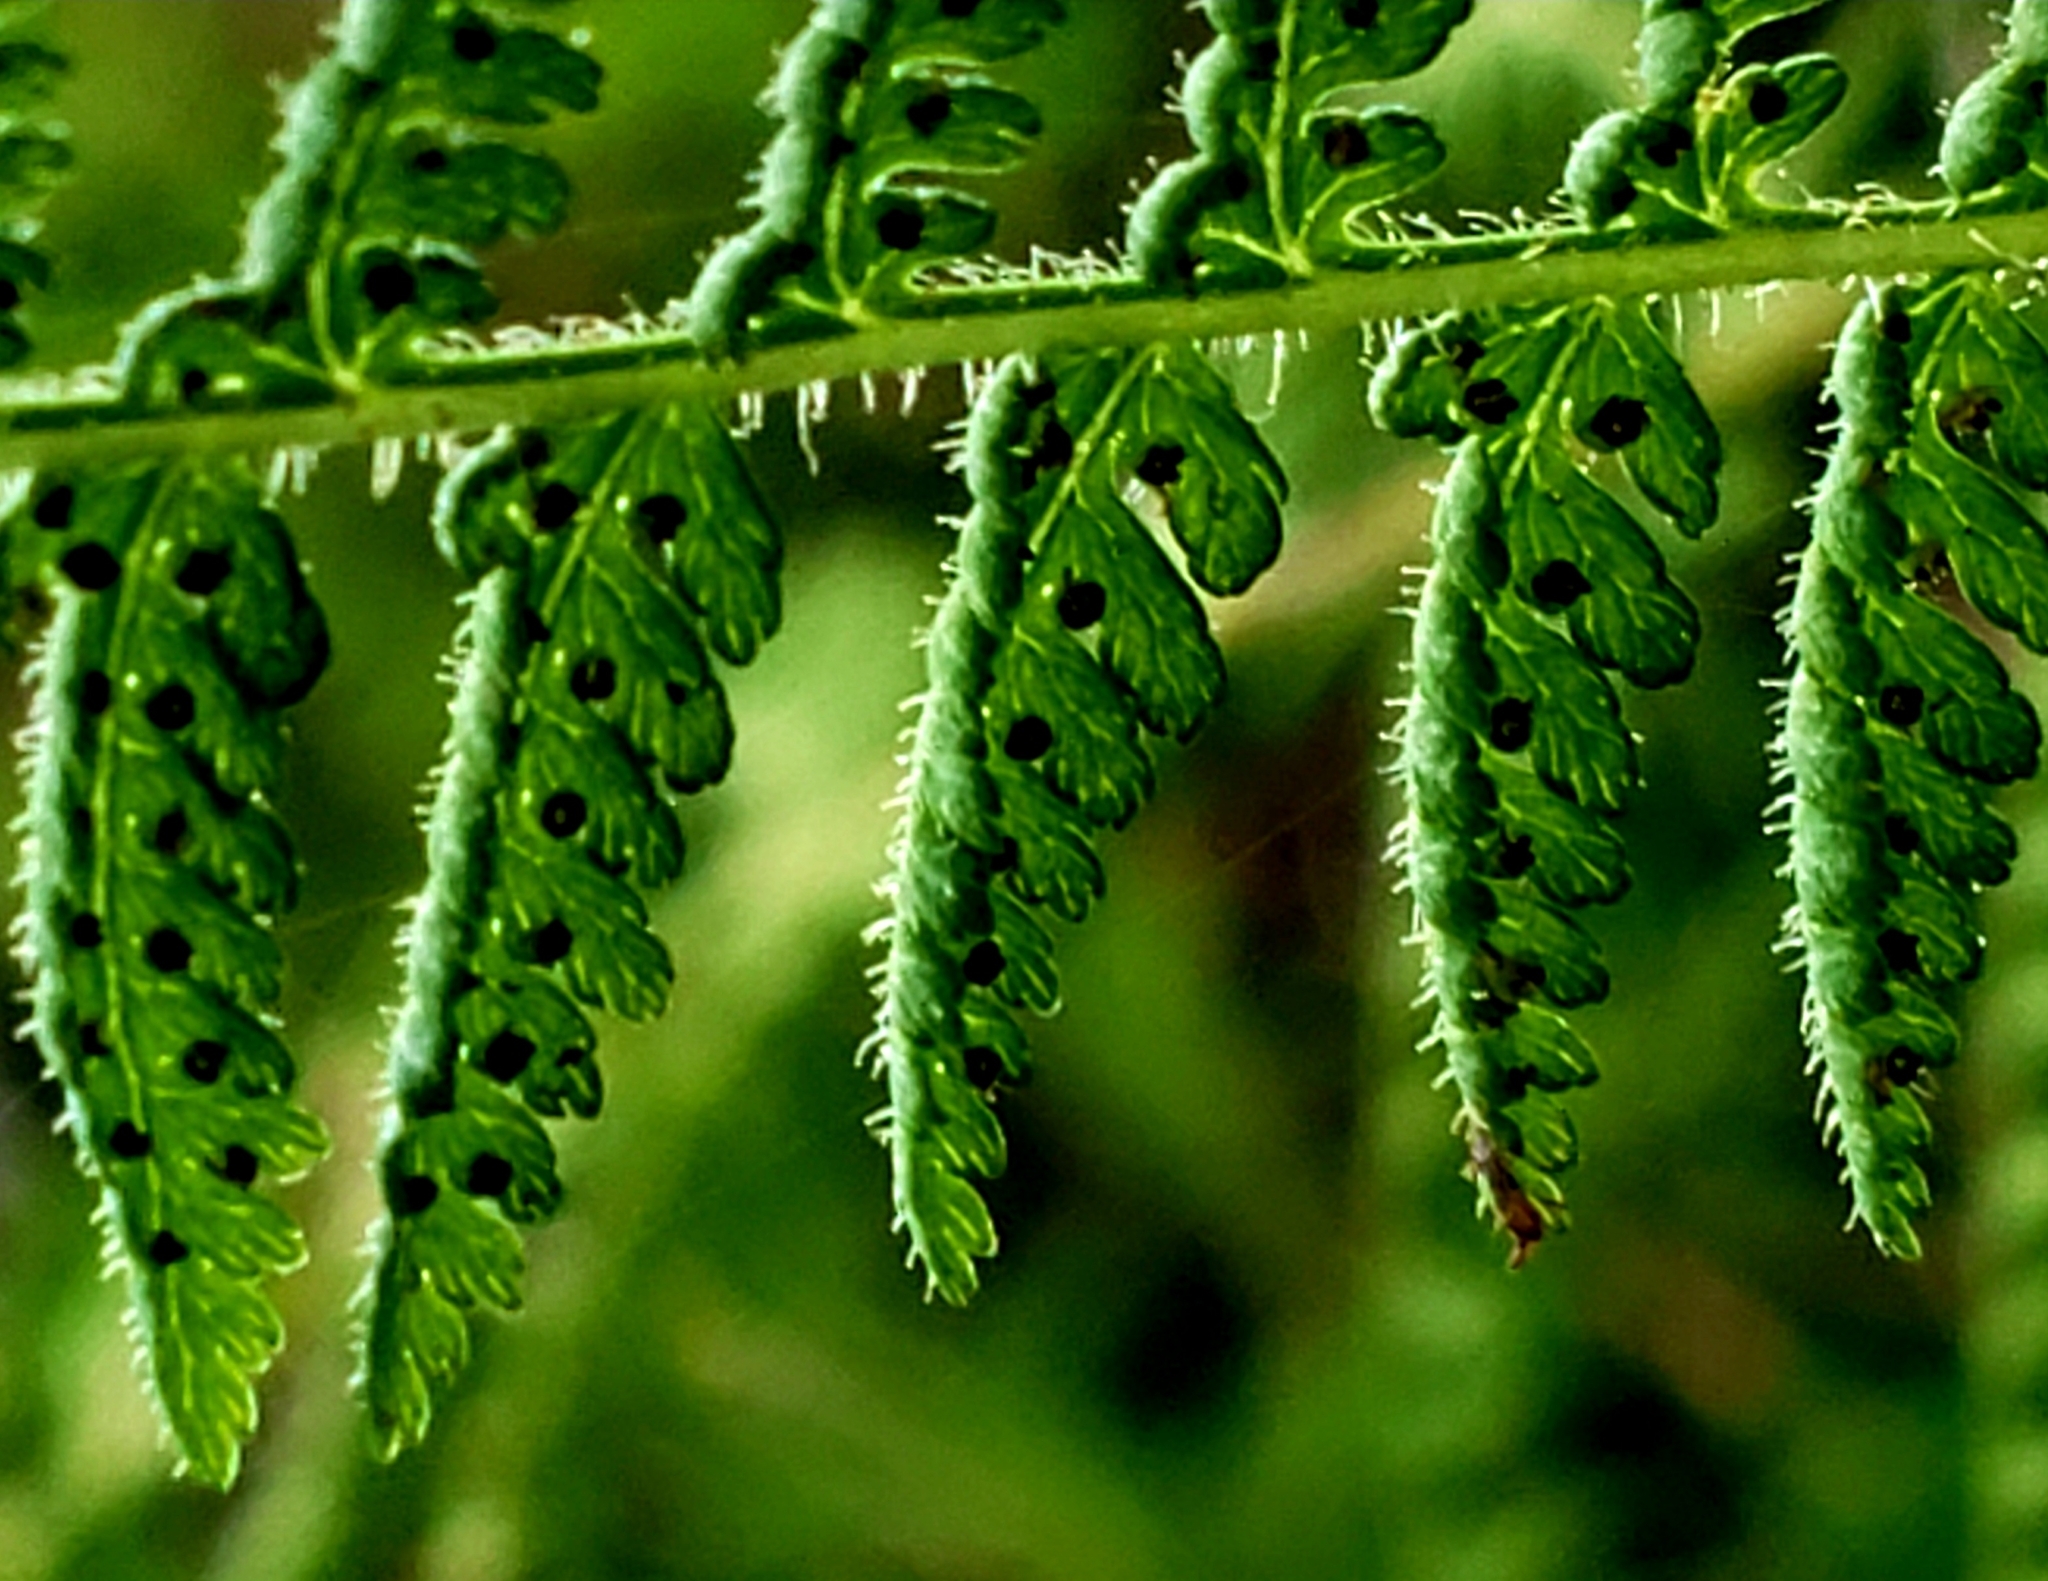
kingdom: Plantae
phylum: Tracheophyta
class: Polypodiopsida
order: Polypodiales
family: Dennstaedtiaceae
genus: Sitobolium
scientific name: Sitobolium punctilobum
